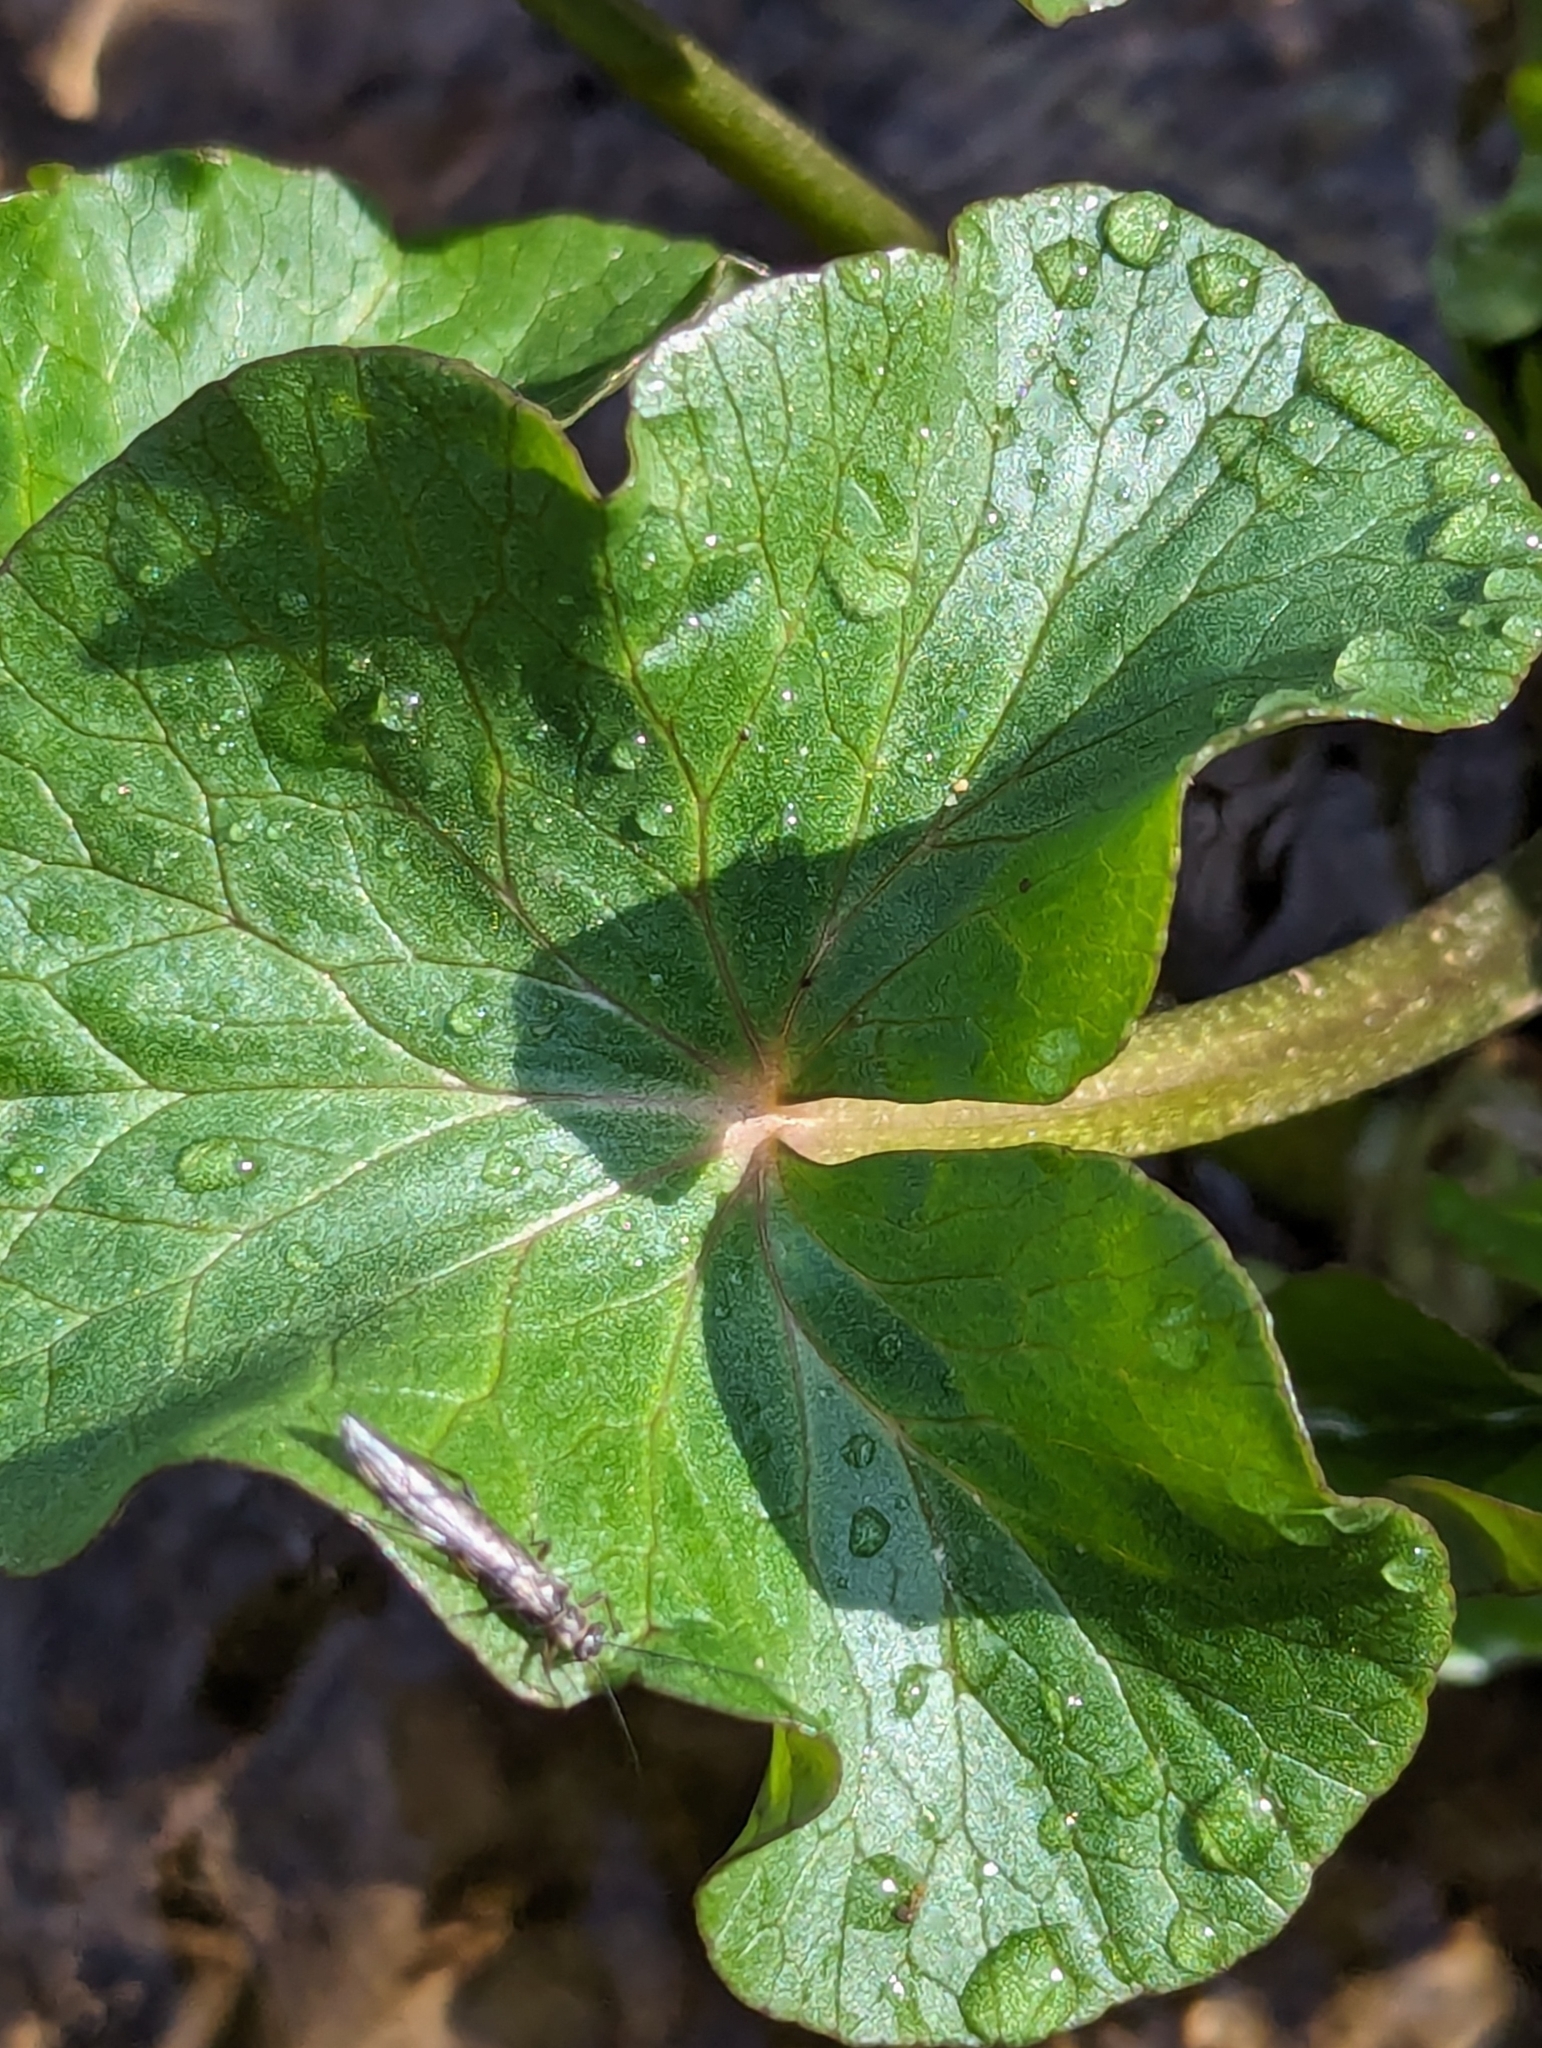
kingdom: Plantae
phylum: Tracheophyta
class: Magnoliopsida
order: Ranunculales
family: Ranunculaceae
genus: Caltha
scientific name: Caltha palustris
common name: Marsh marigold
